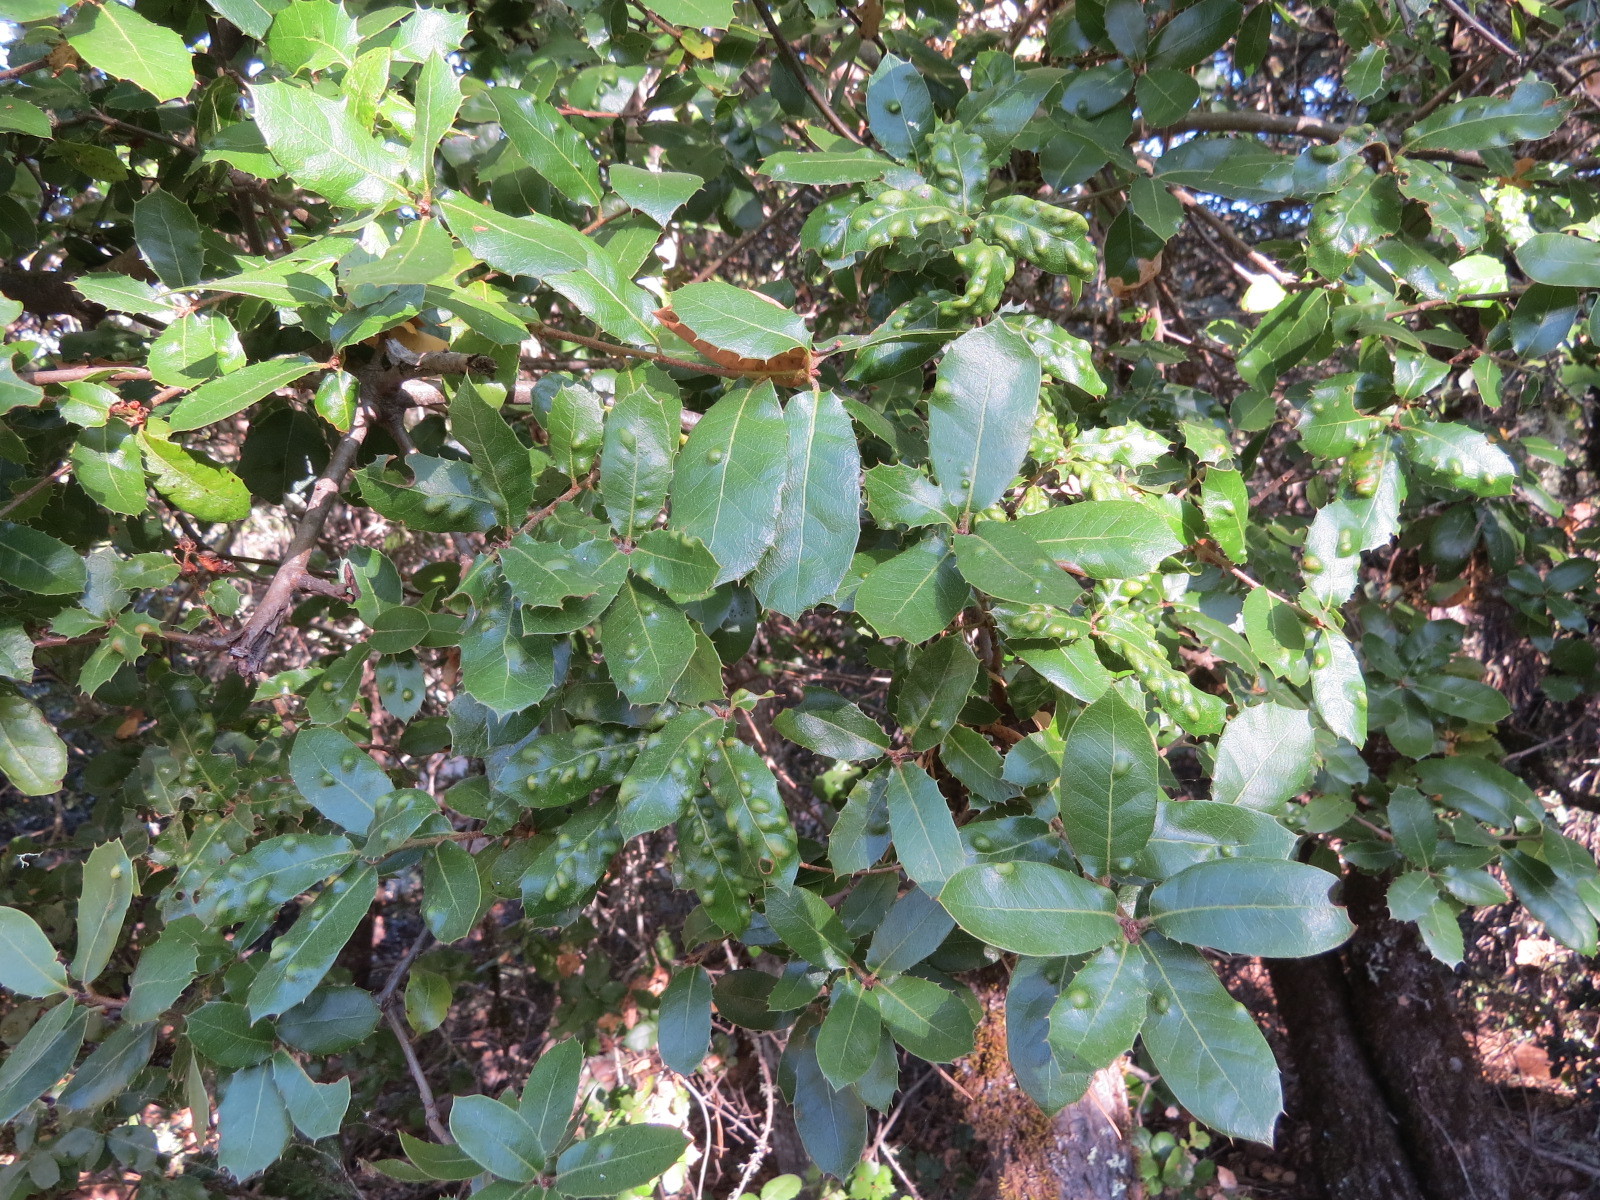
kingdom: Animalia
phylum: Arthropoda
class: Arachnida
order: Trombidiformes
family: Eriophyidae
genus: Aceria
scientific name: Aceria
